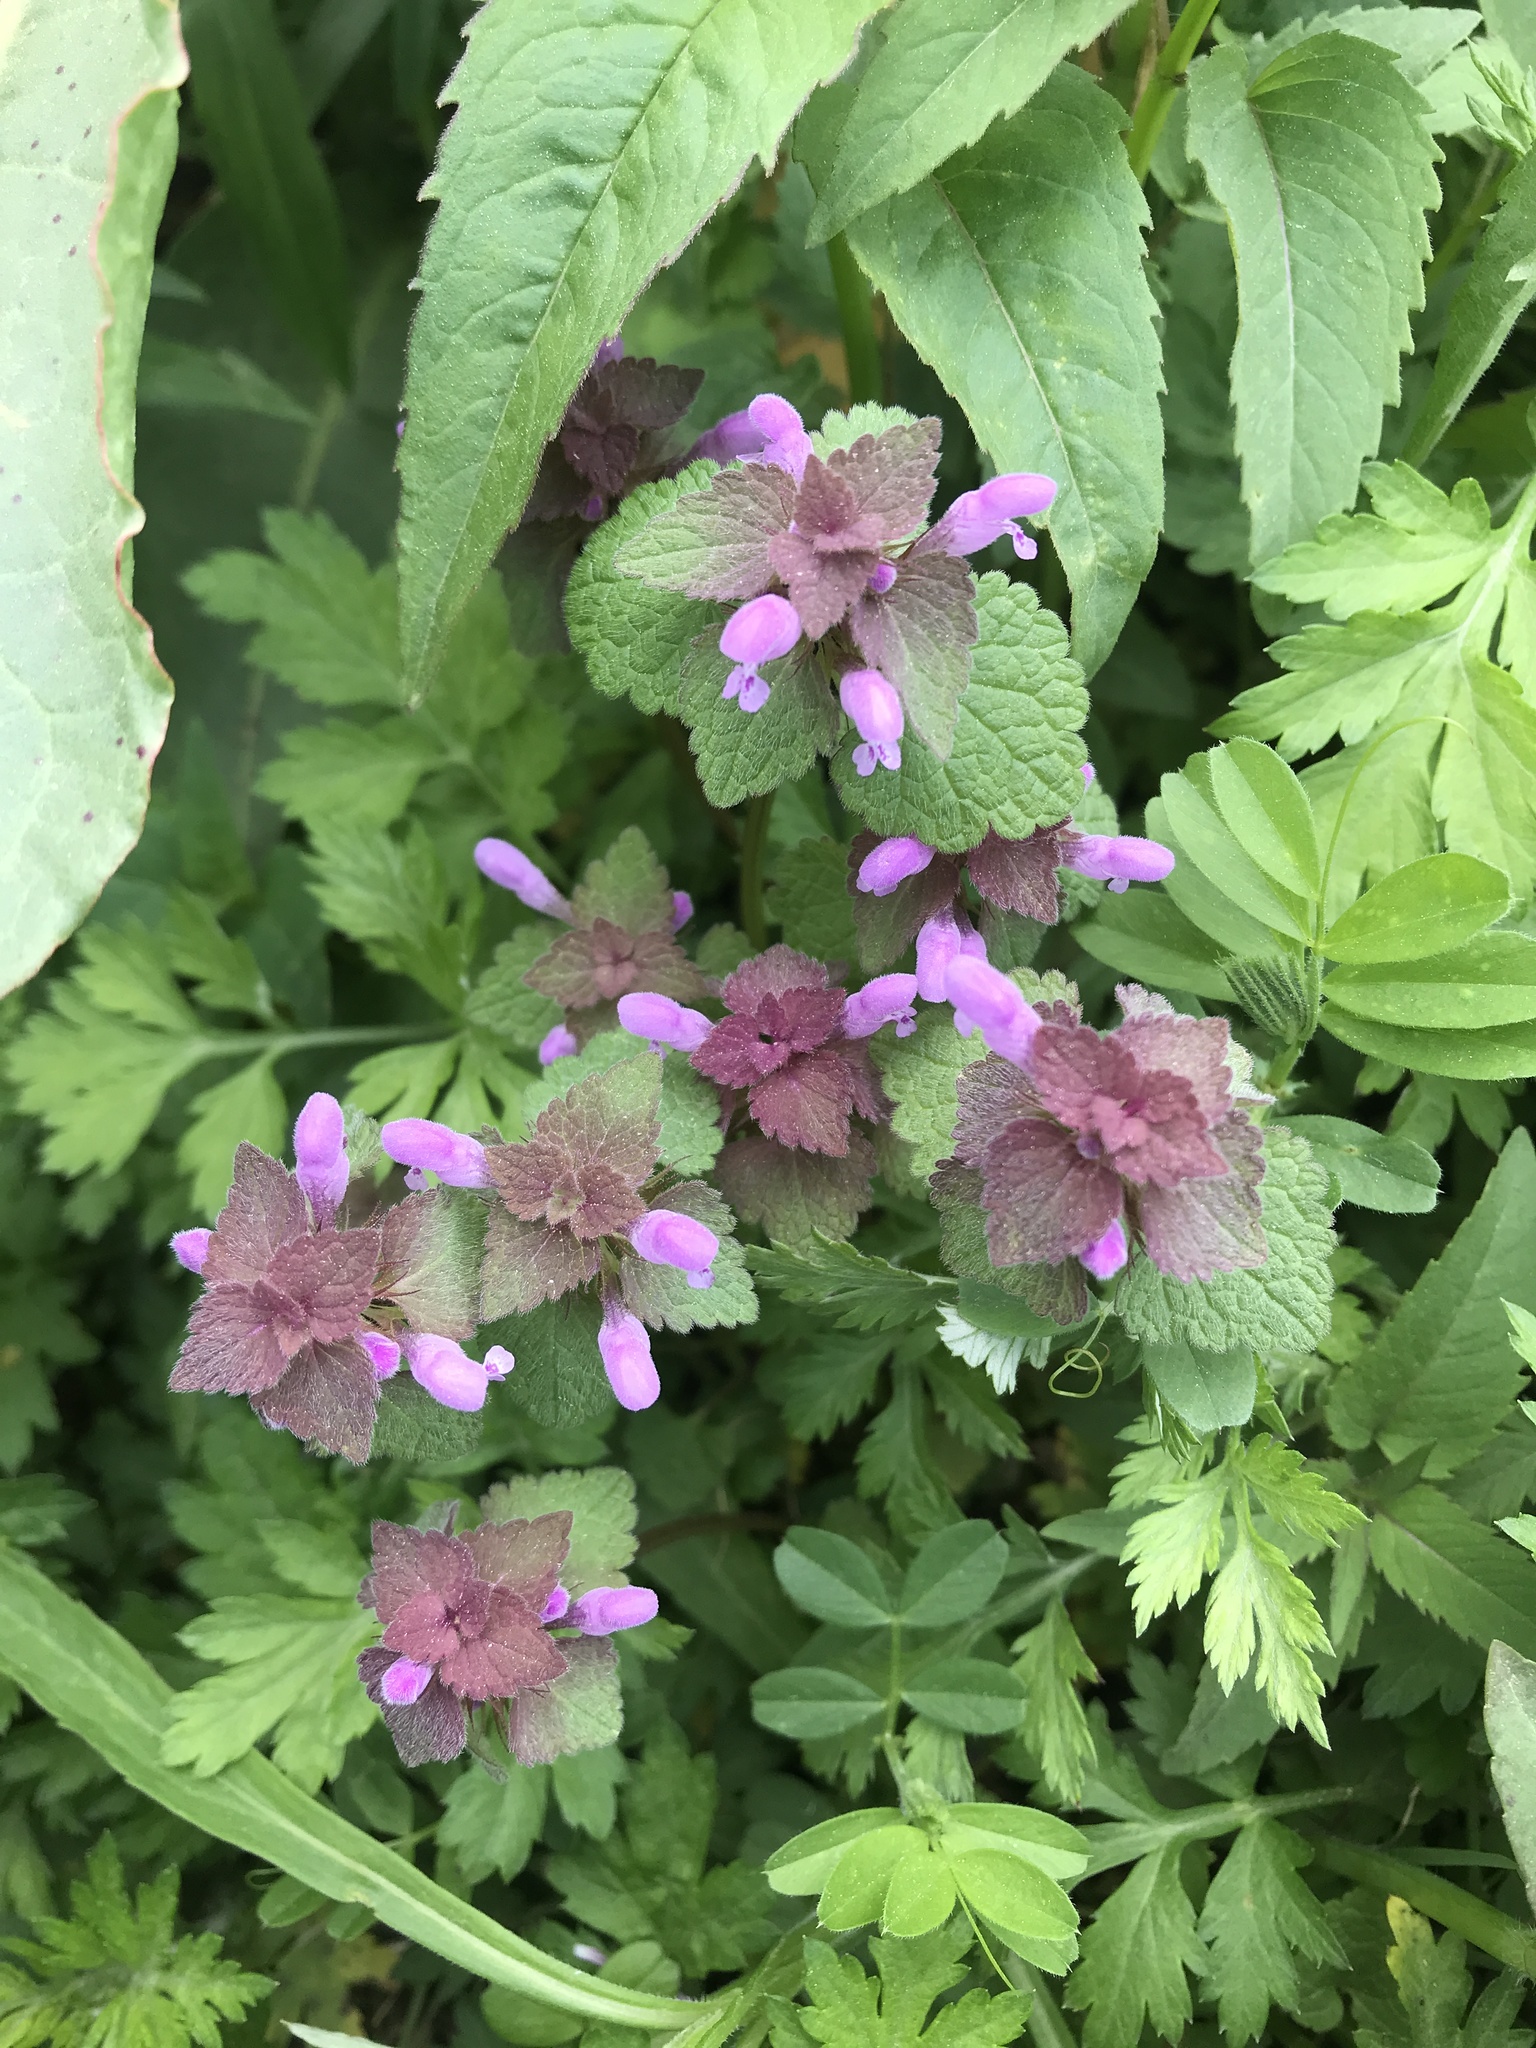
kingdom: Plantae
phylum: Tracheophyta
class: Magnoliopsida
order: Lamiales
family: Lamiaceae
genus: Lamium
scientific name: Lamium purpureum
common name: Red dead-nettle
